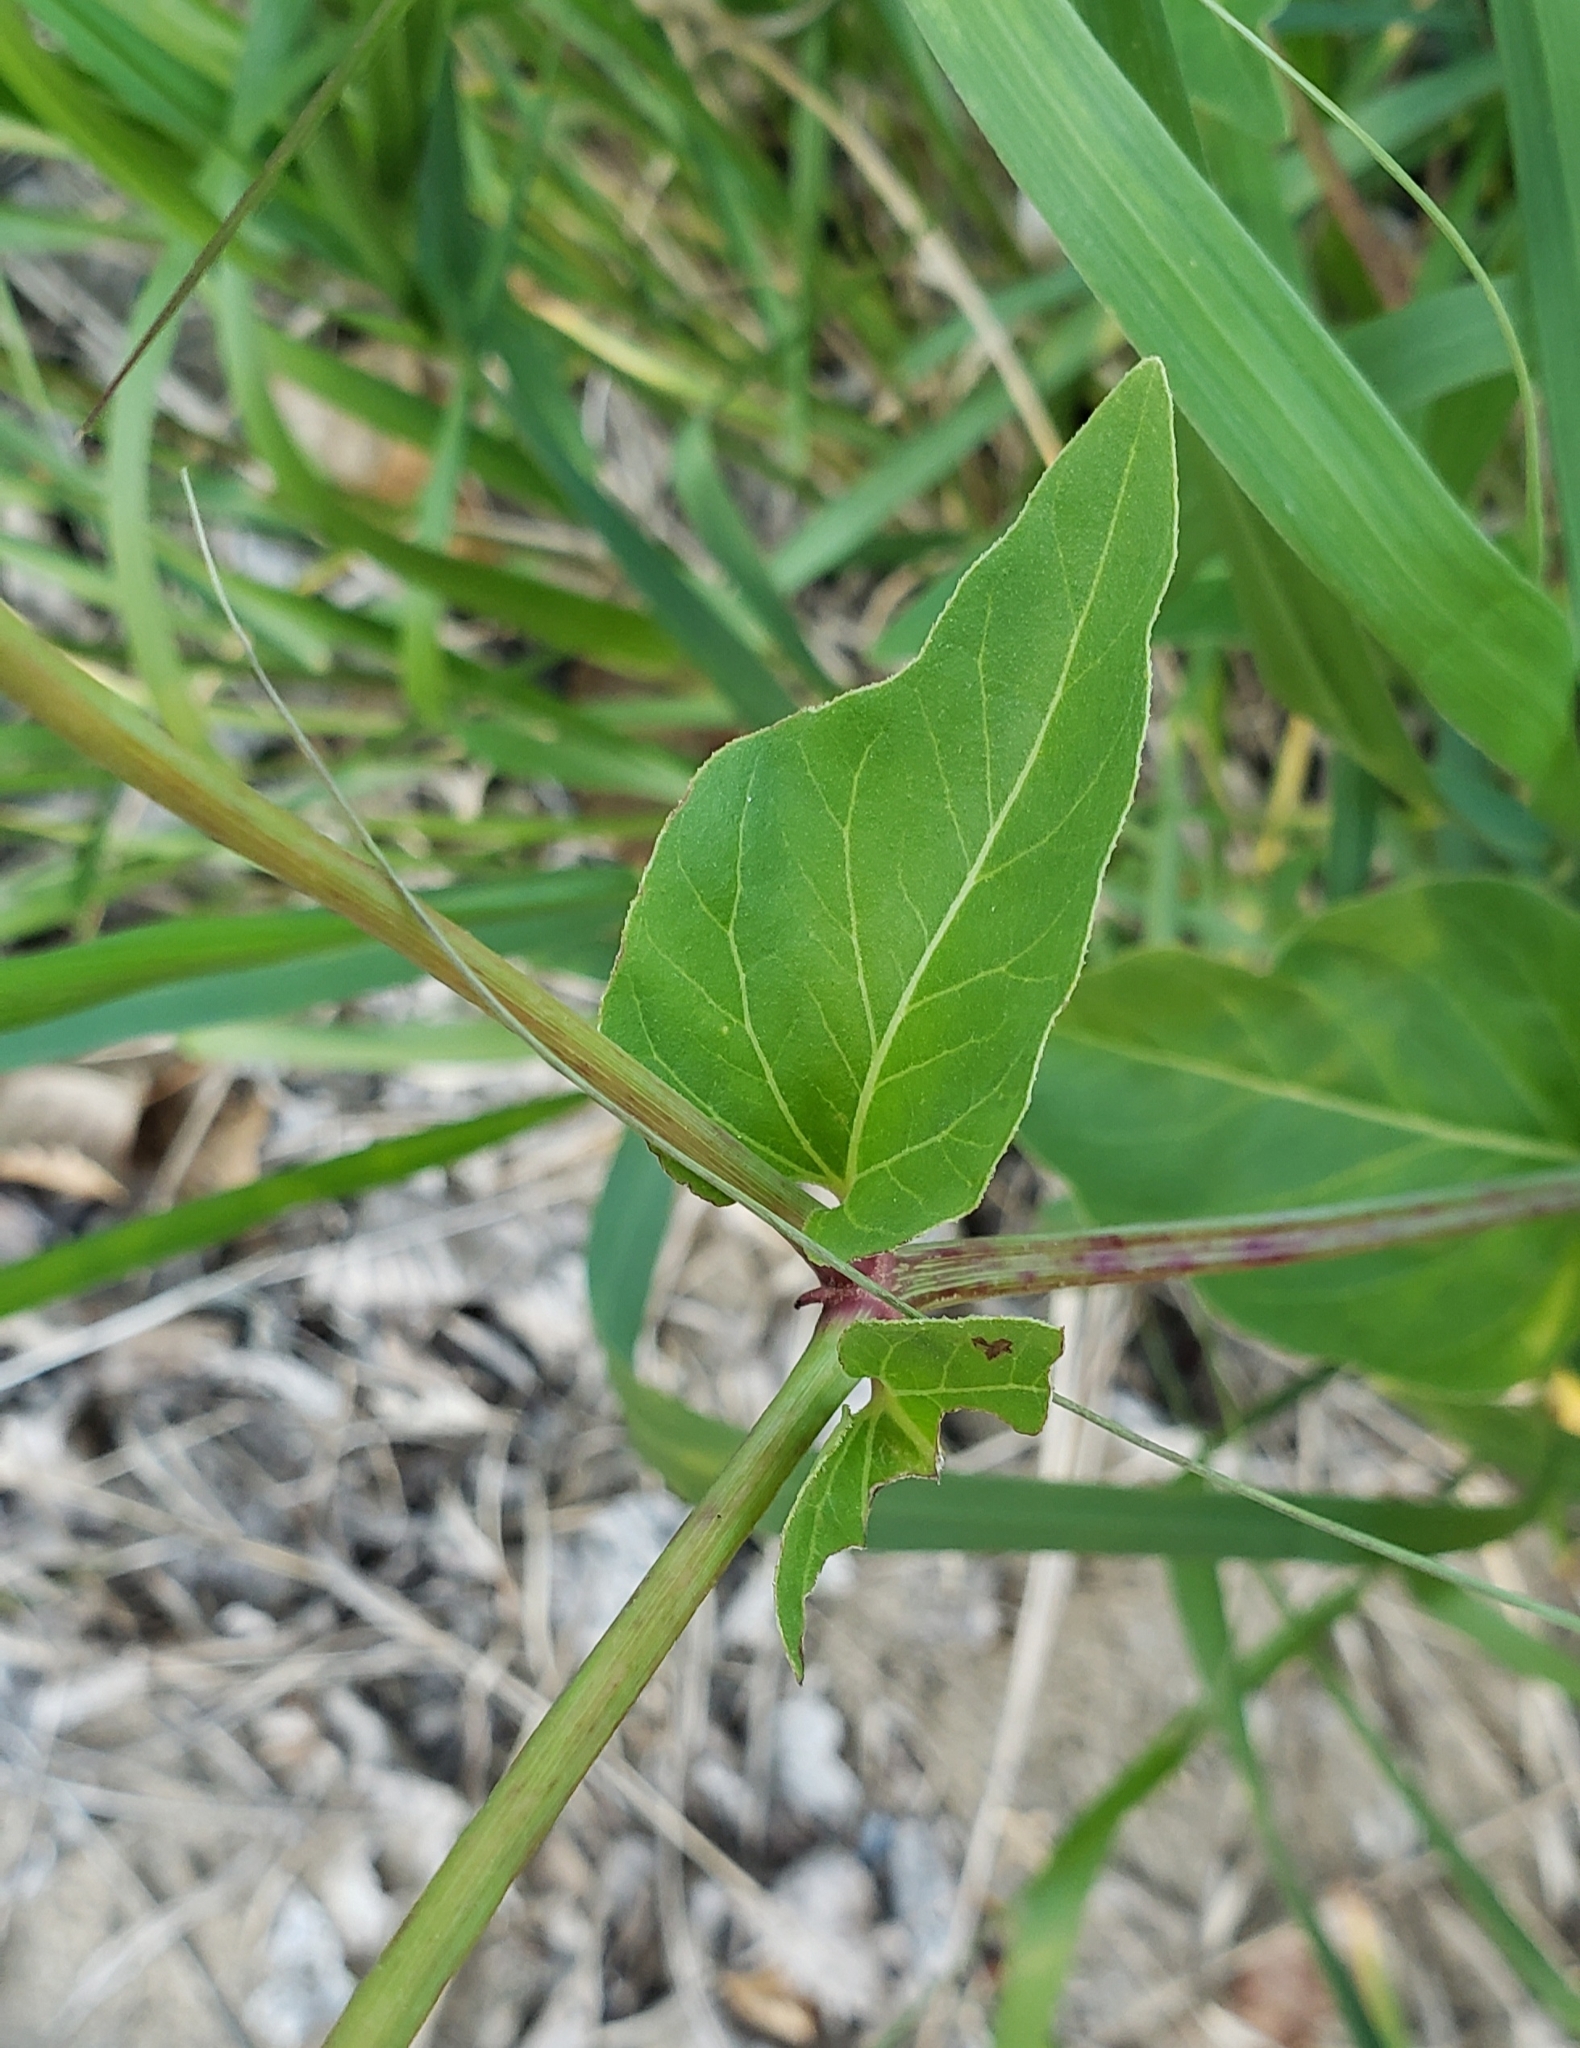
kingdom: Plantae
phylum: Tracheophyta
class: Magnoliopsida
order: Caryophyllales
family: Nyctaginaceae
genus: Mirabilis
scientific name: Mirabilis nyctaginea
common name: Umbrella wort
